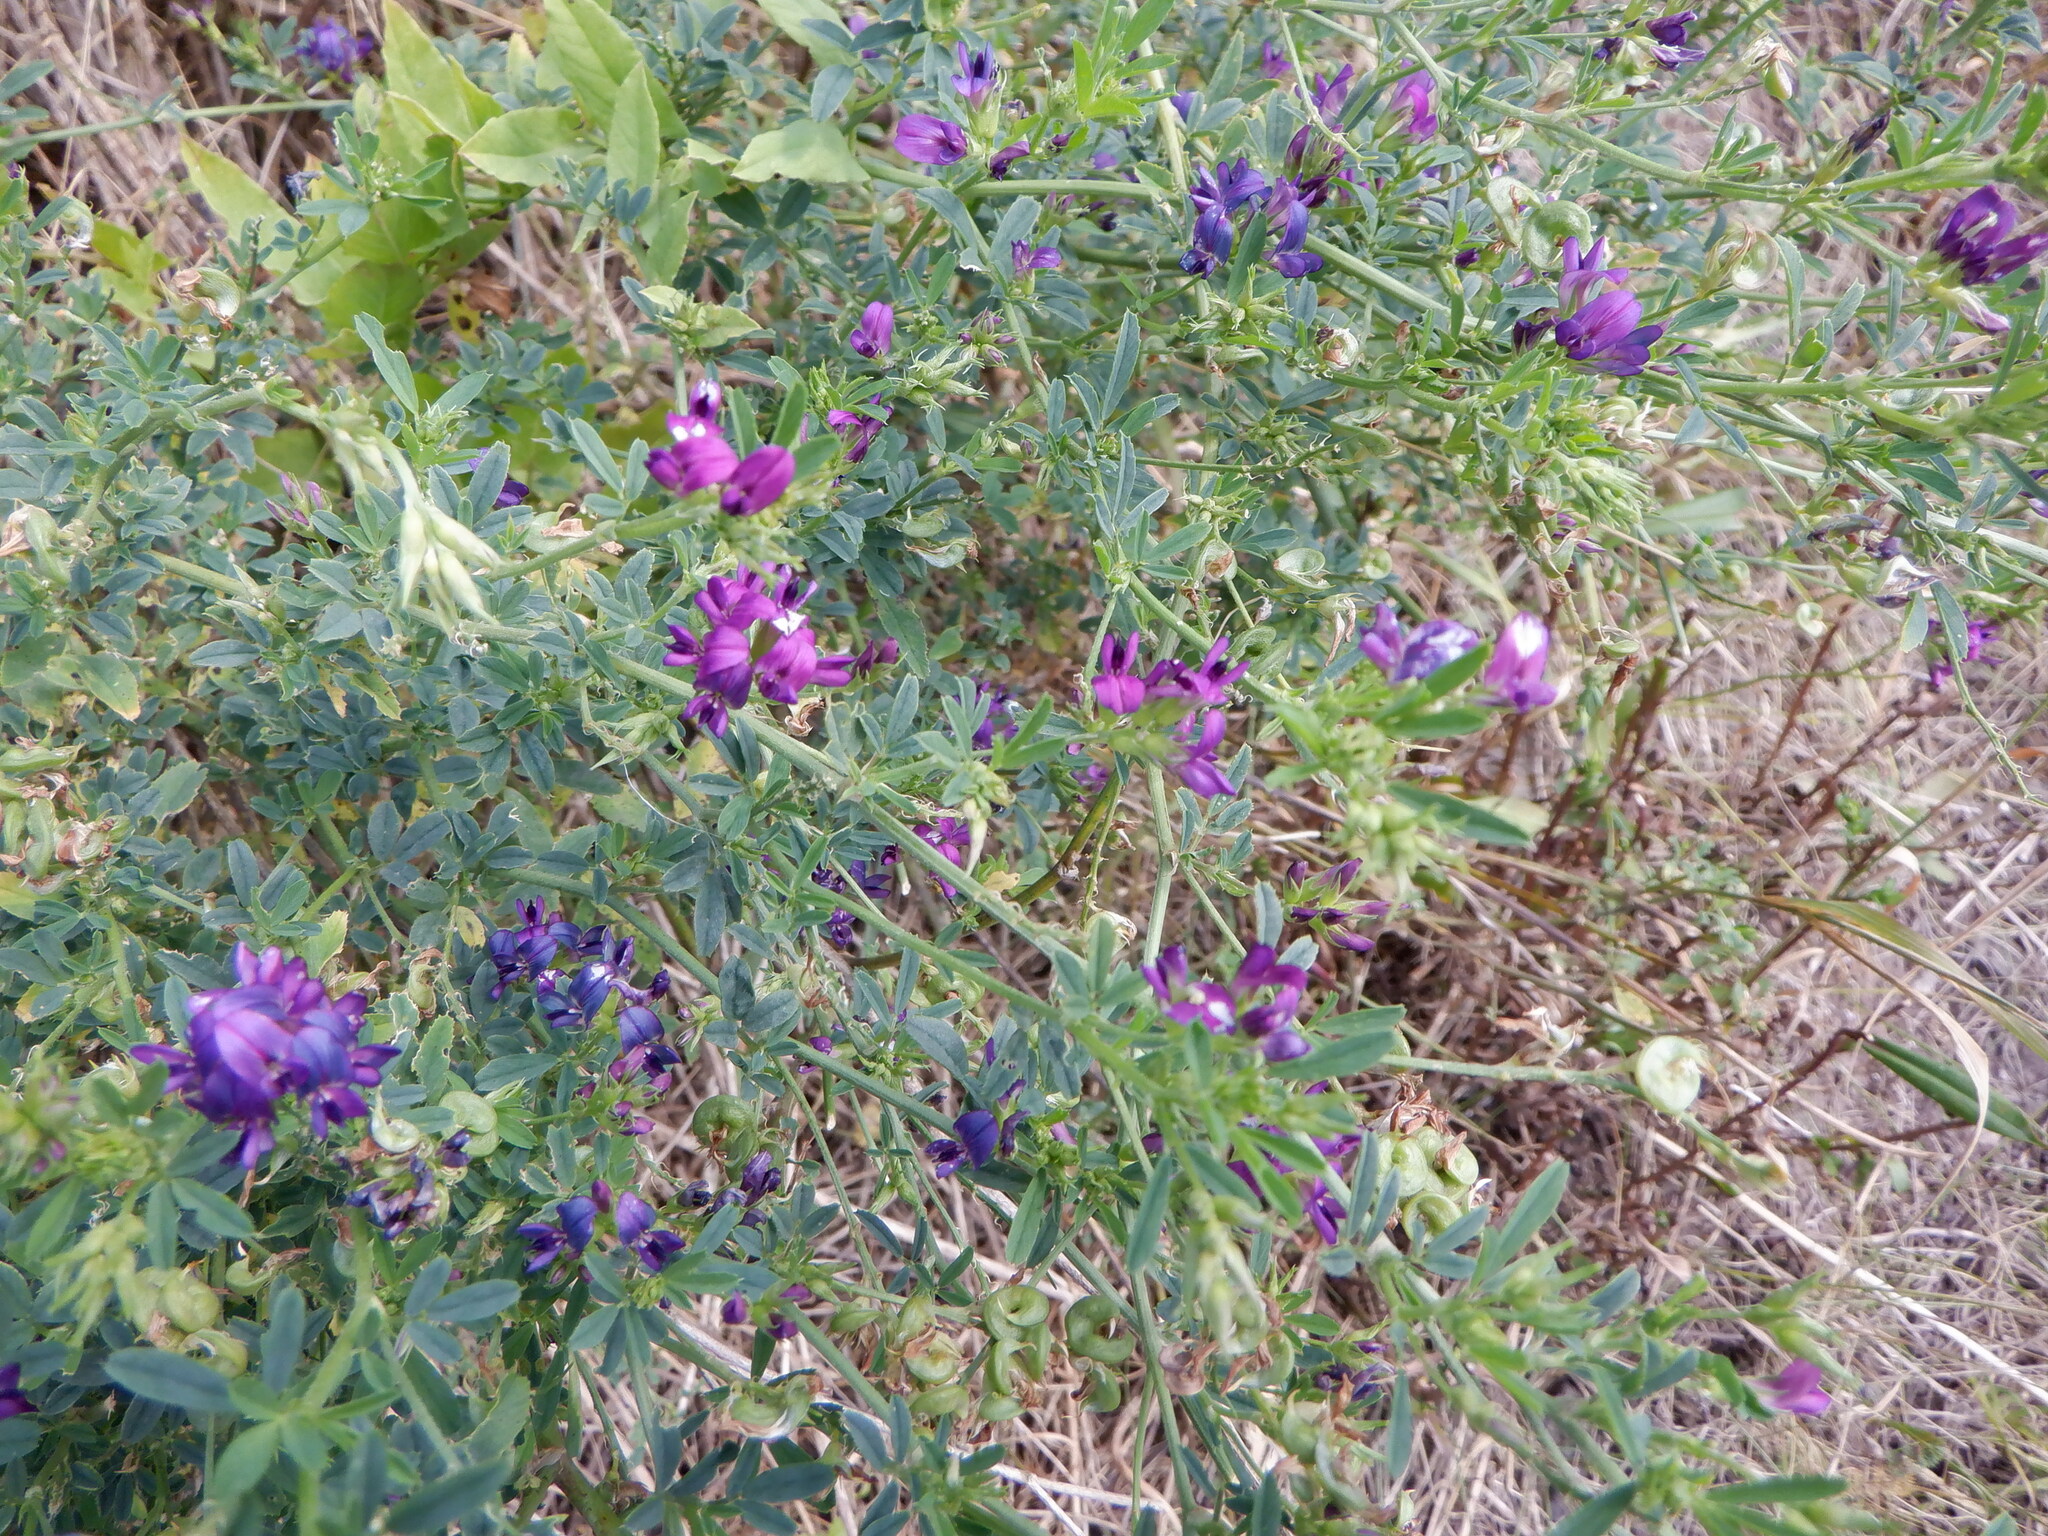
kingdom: Plantae
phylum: Tracheophyta
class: Magnoliopsida
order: Fabales
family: Fabaceae
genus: Medicago
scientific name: Medicago sativa
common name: Alfalfa
